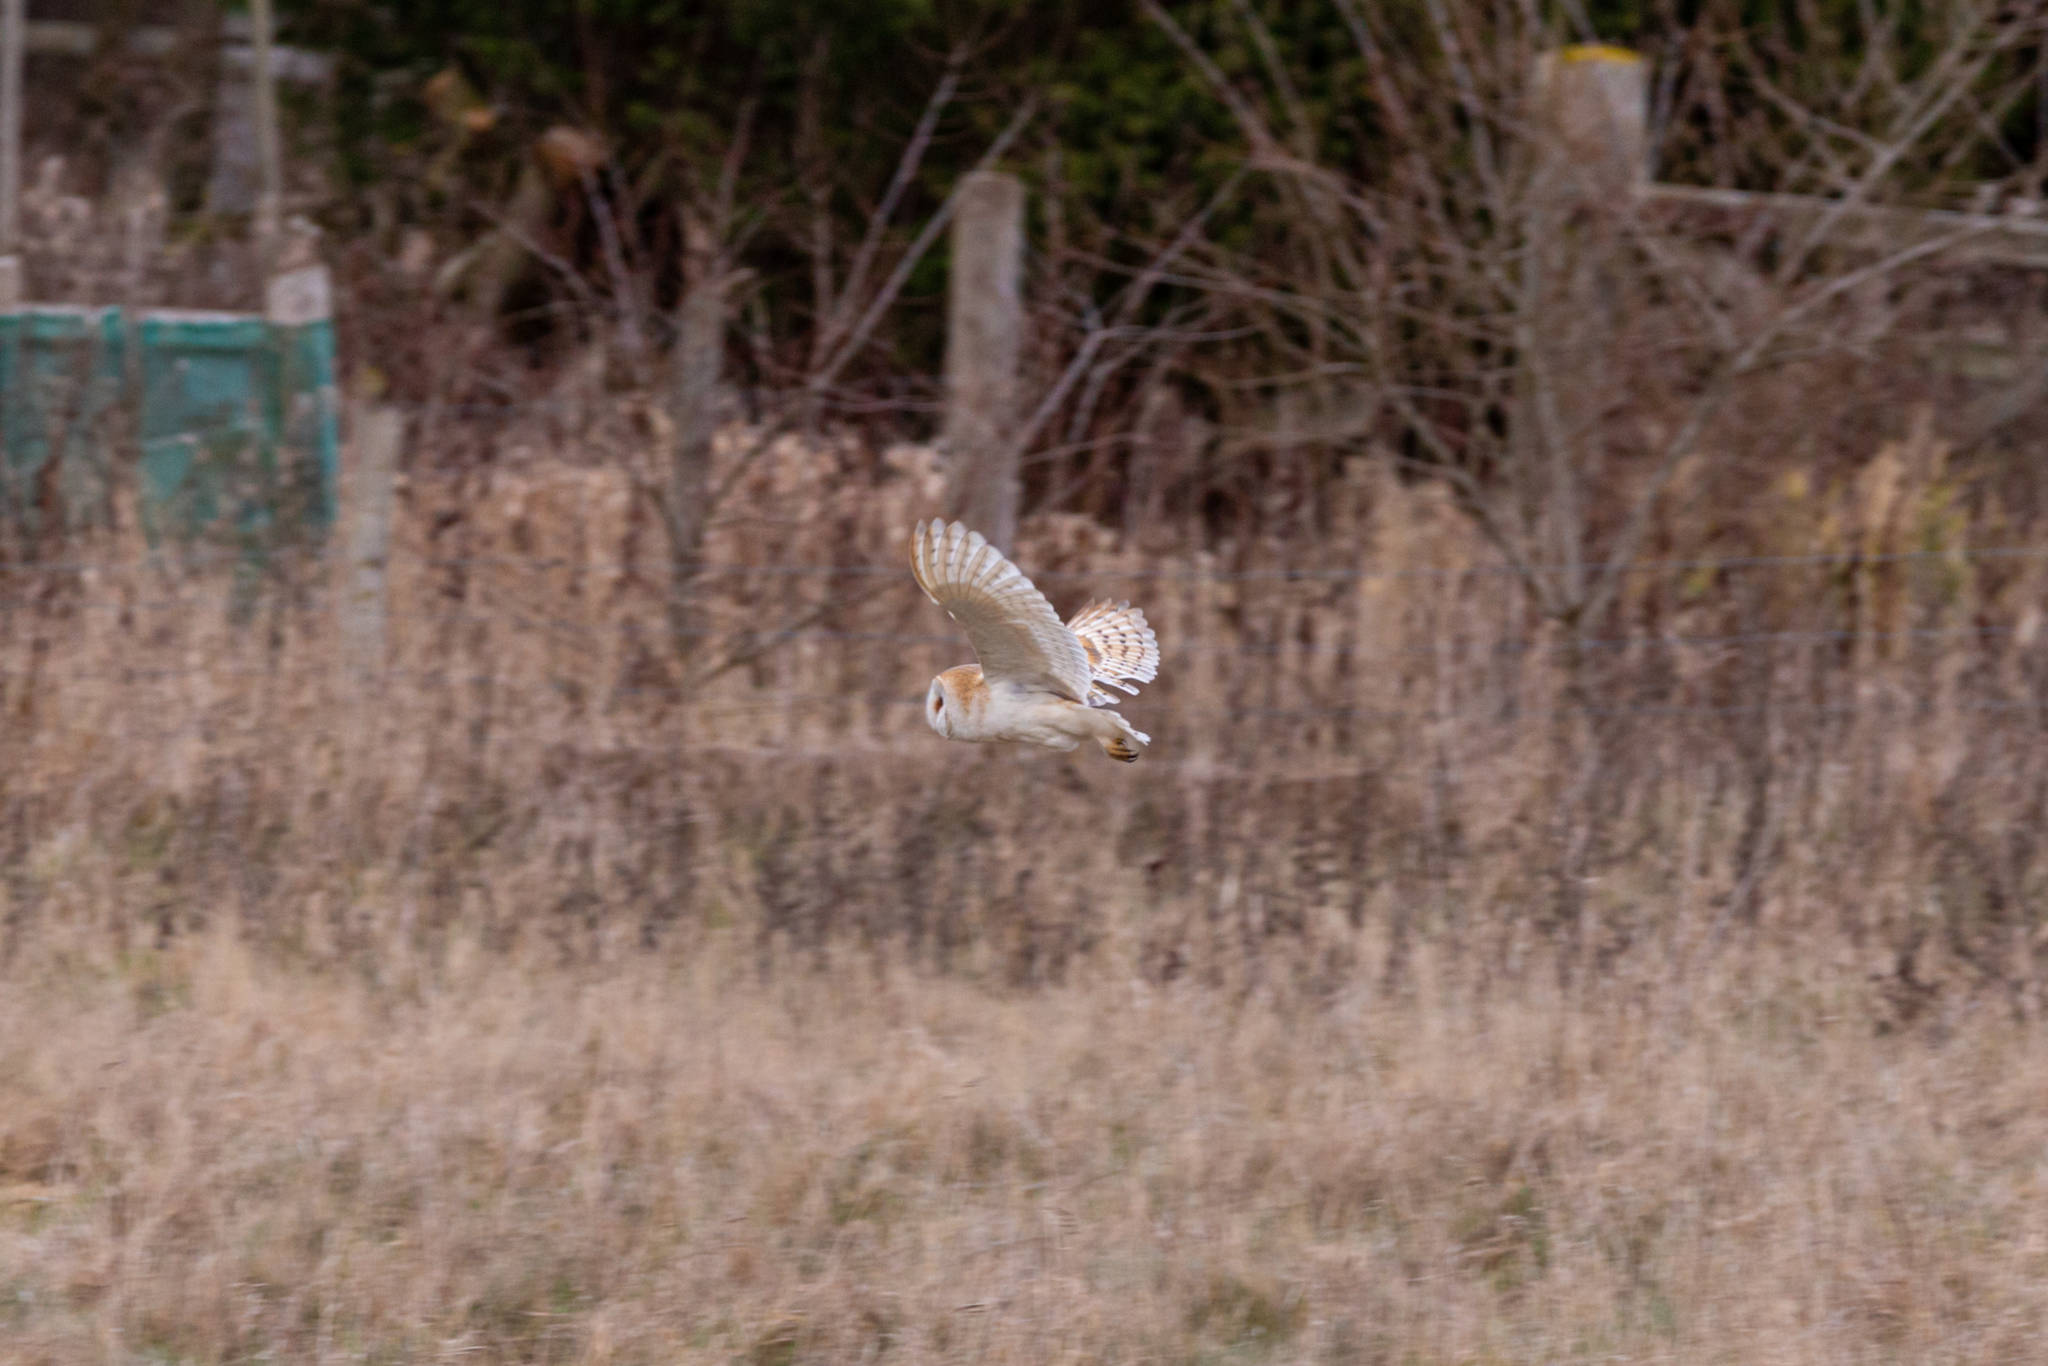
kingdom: Animalia
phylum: Chordata
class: Aves
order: Strigiformes
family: Tytonidae
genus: Tyto
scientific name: Tyto alba
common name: Barn owl
